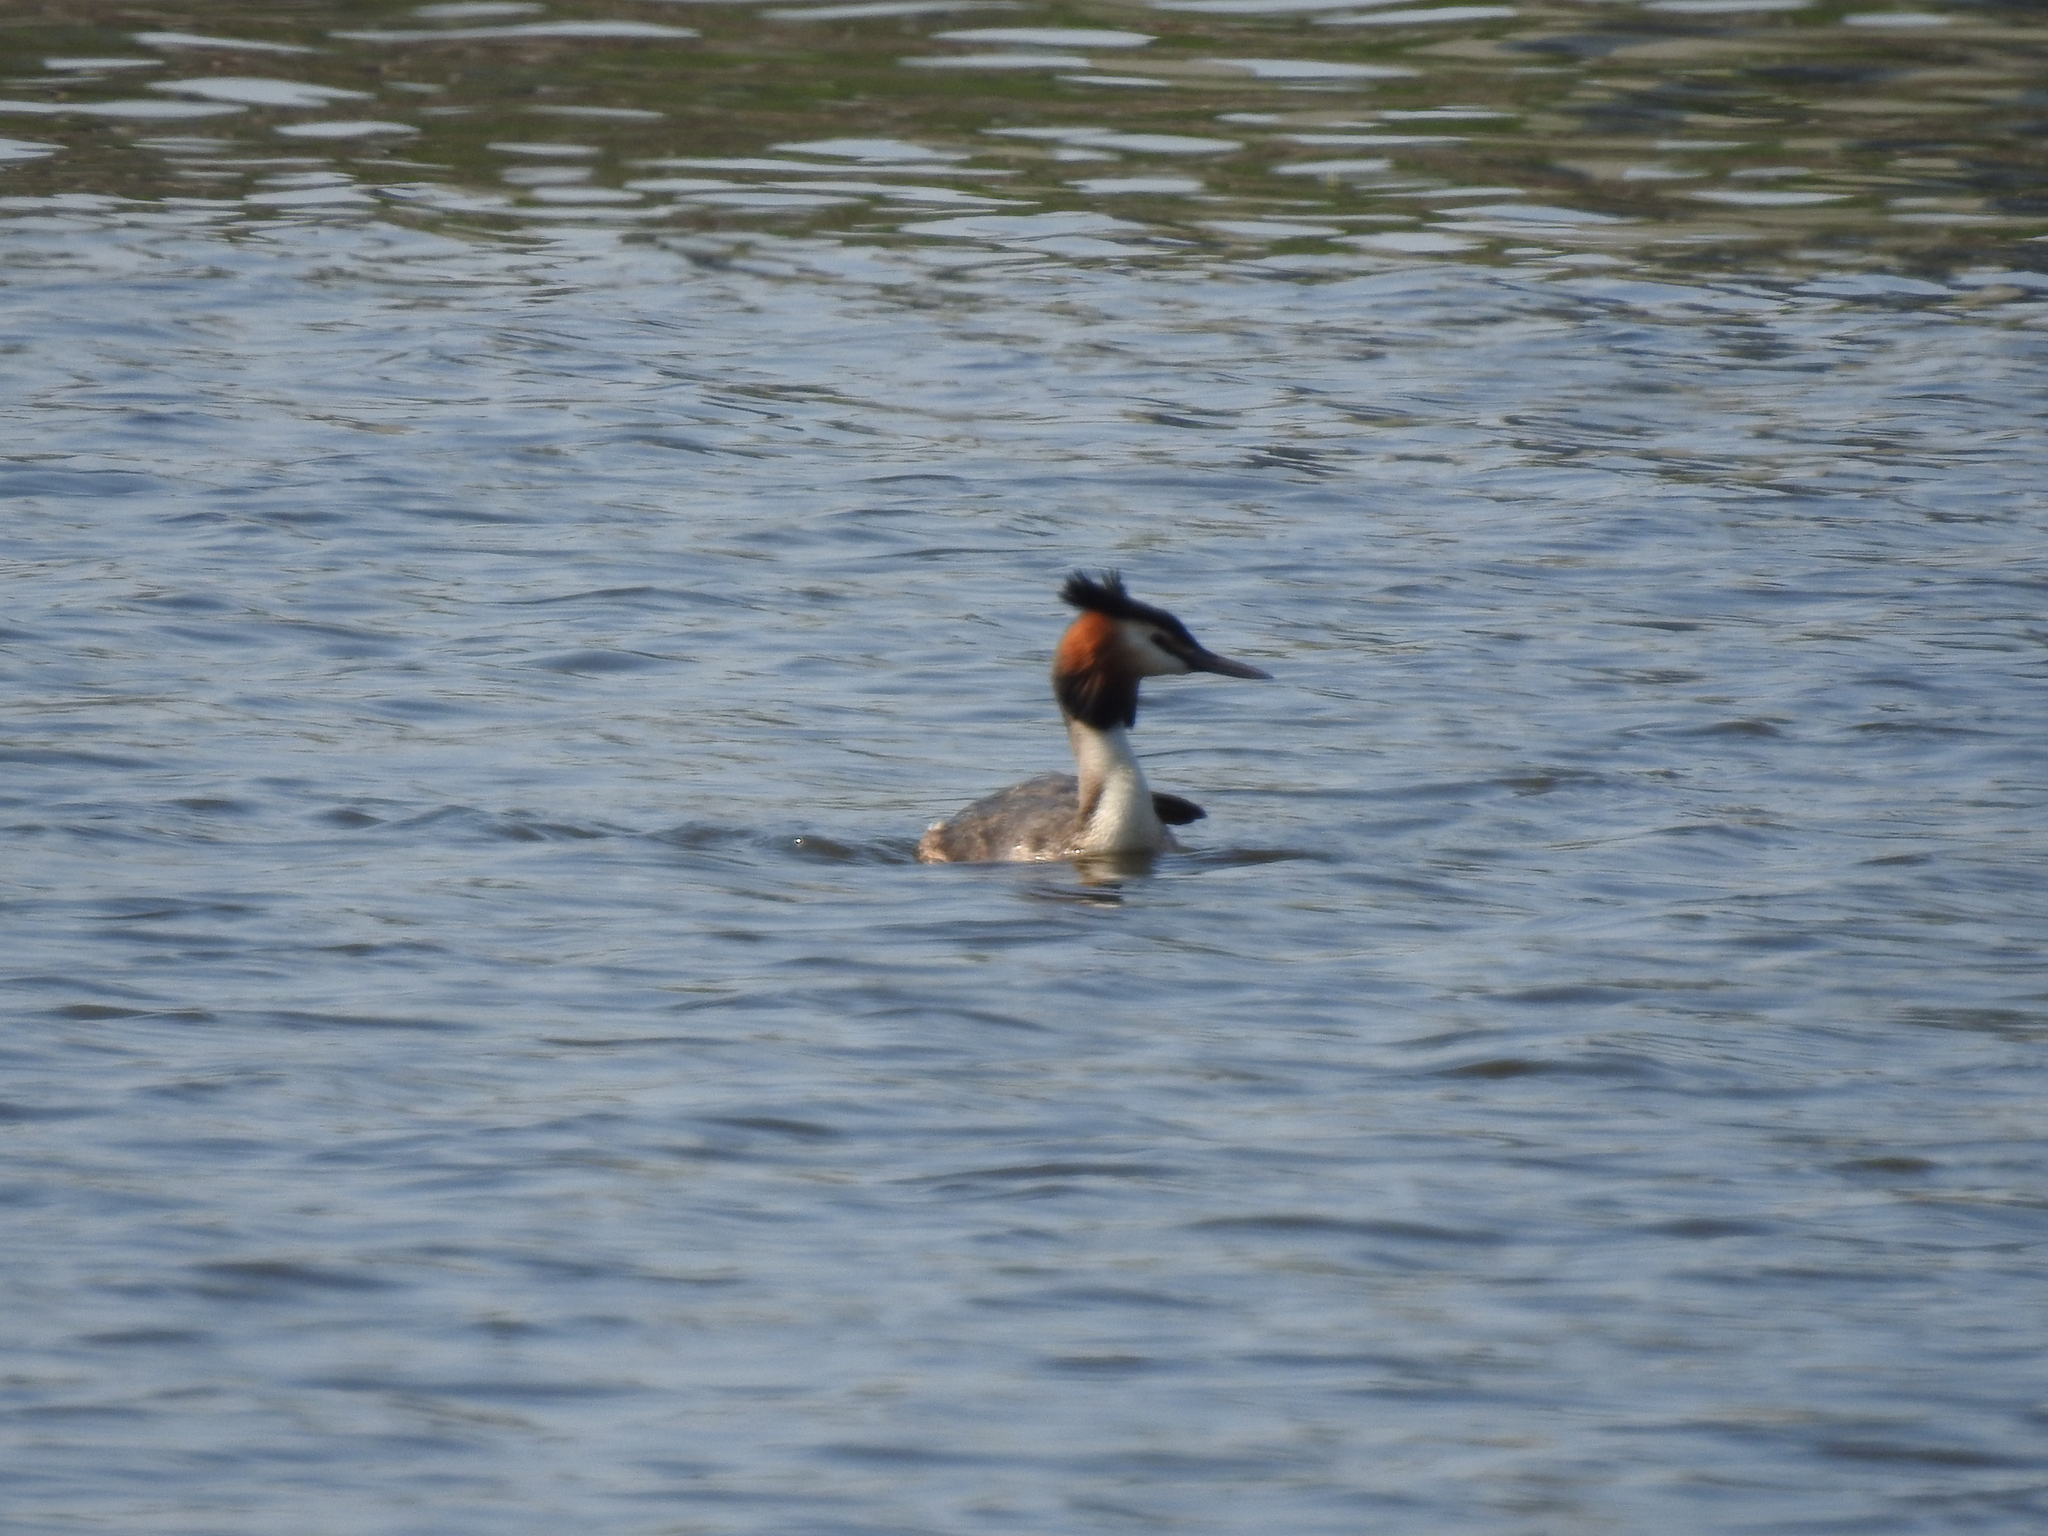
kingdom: Animalia
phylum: Chordata
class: Aves
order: Podicipediformes
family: Podicipedidae
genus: Podiceps
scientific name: Podiceps cristatus
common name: Great crested grebe
